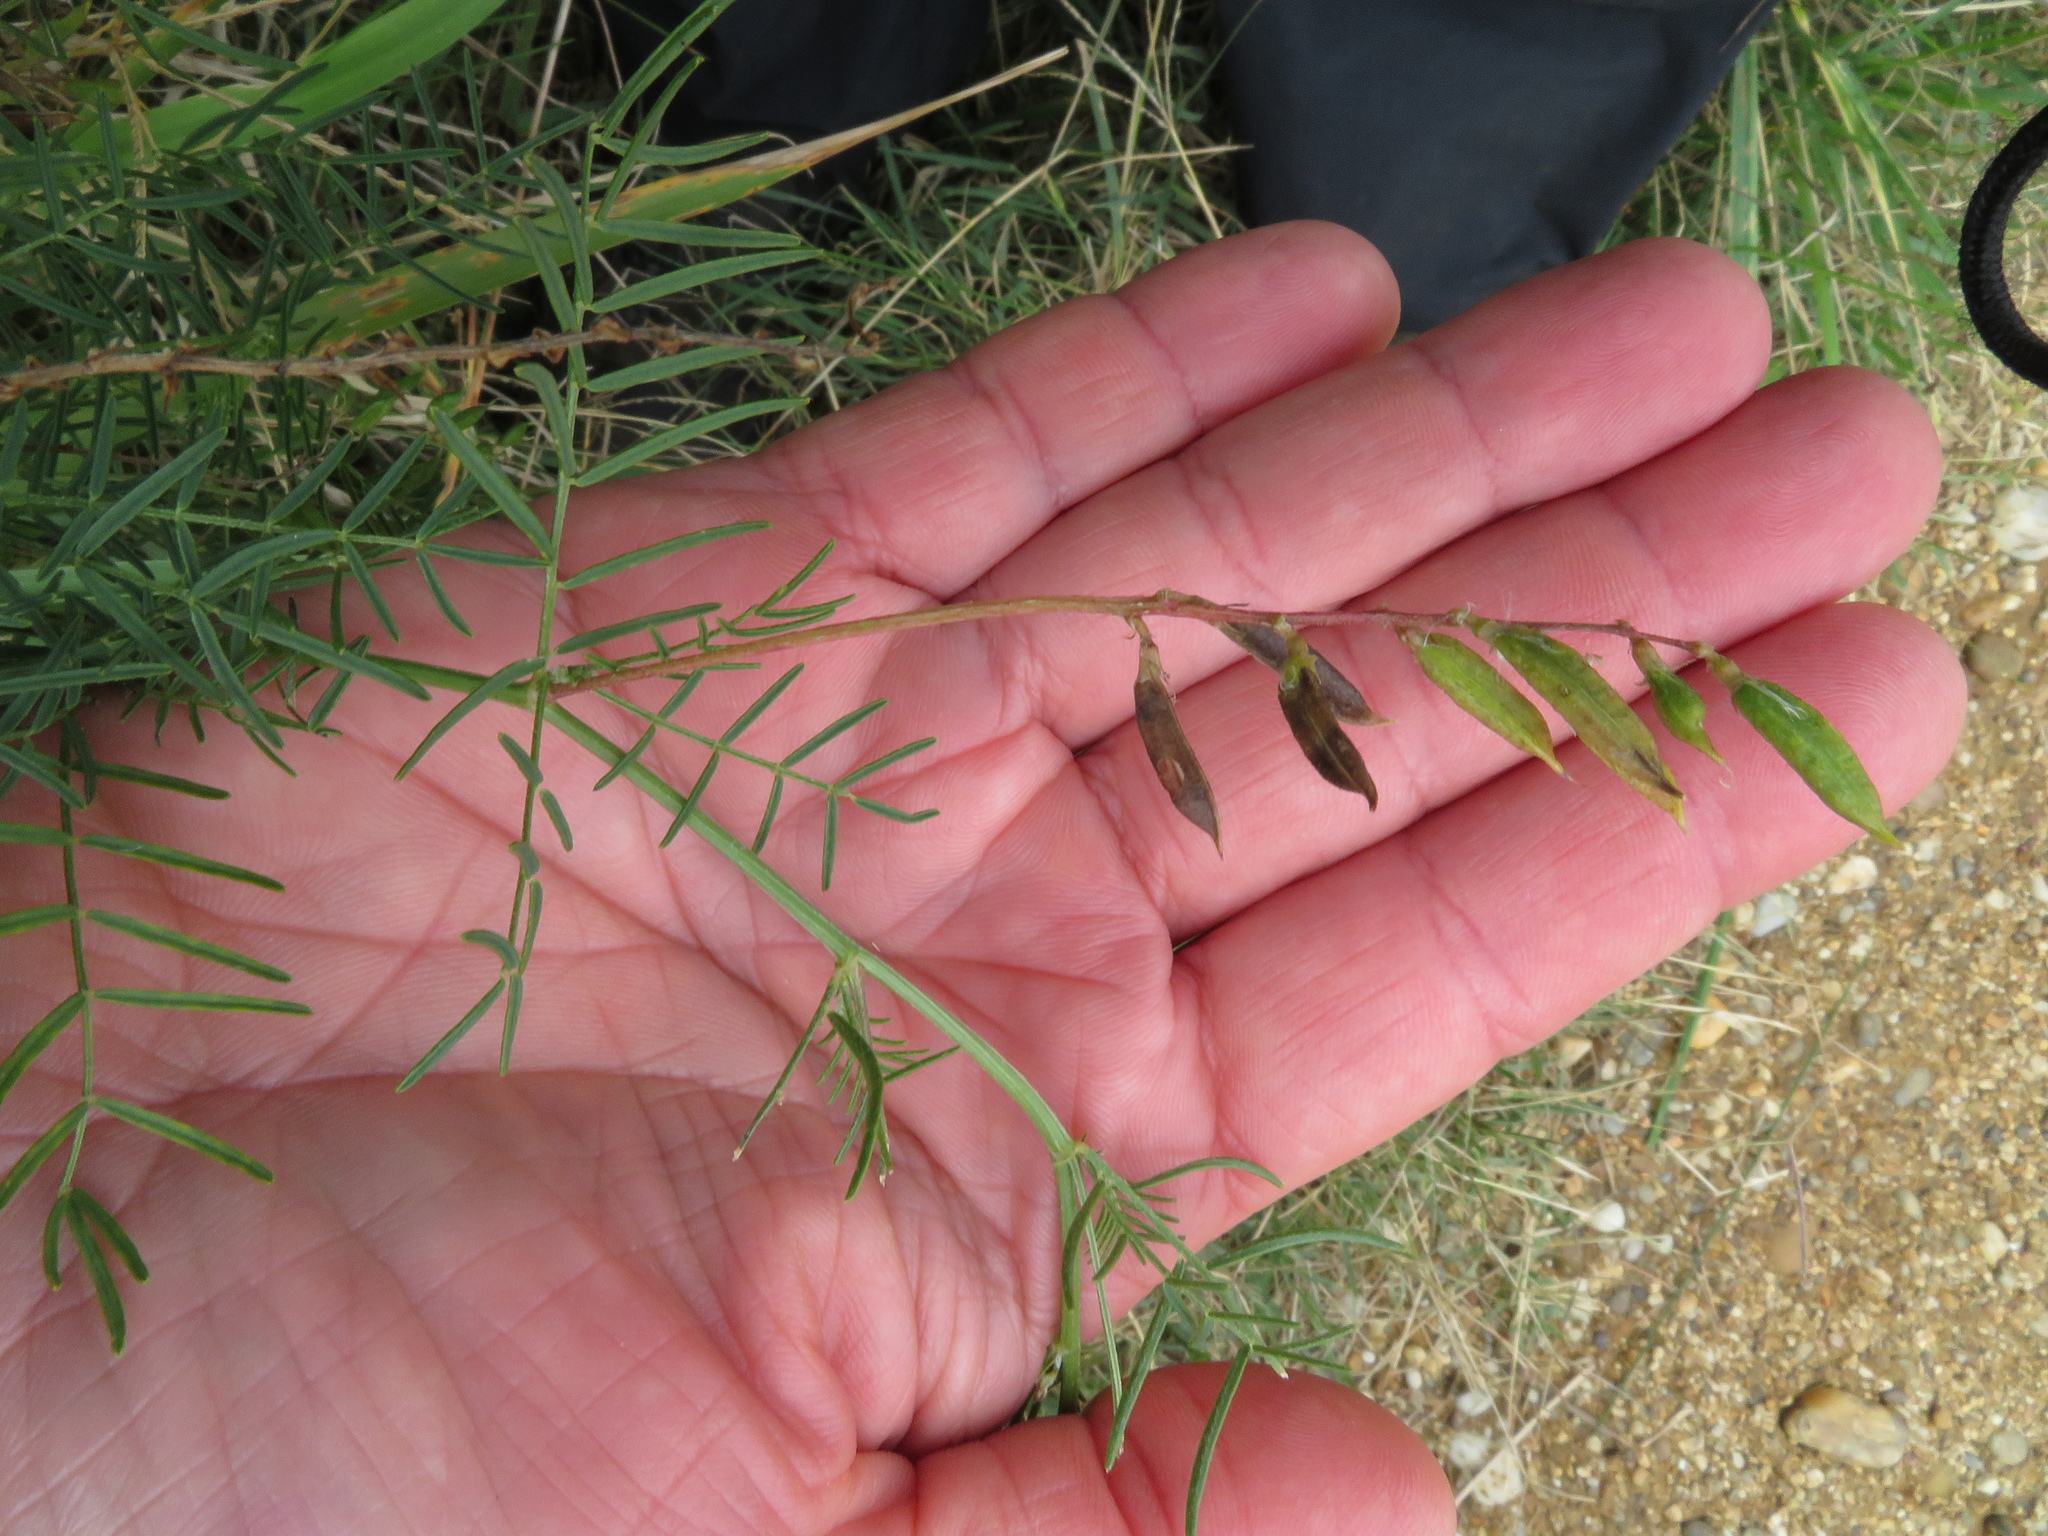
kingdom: Plantae
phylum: Tracheophyta
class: Magnoliopsida
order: Fabales
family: Fabaceae
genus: Astragalus
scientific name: Astragalus sulcatus
